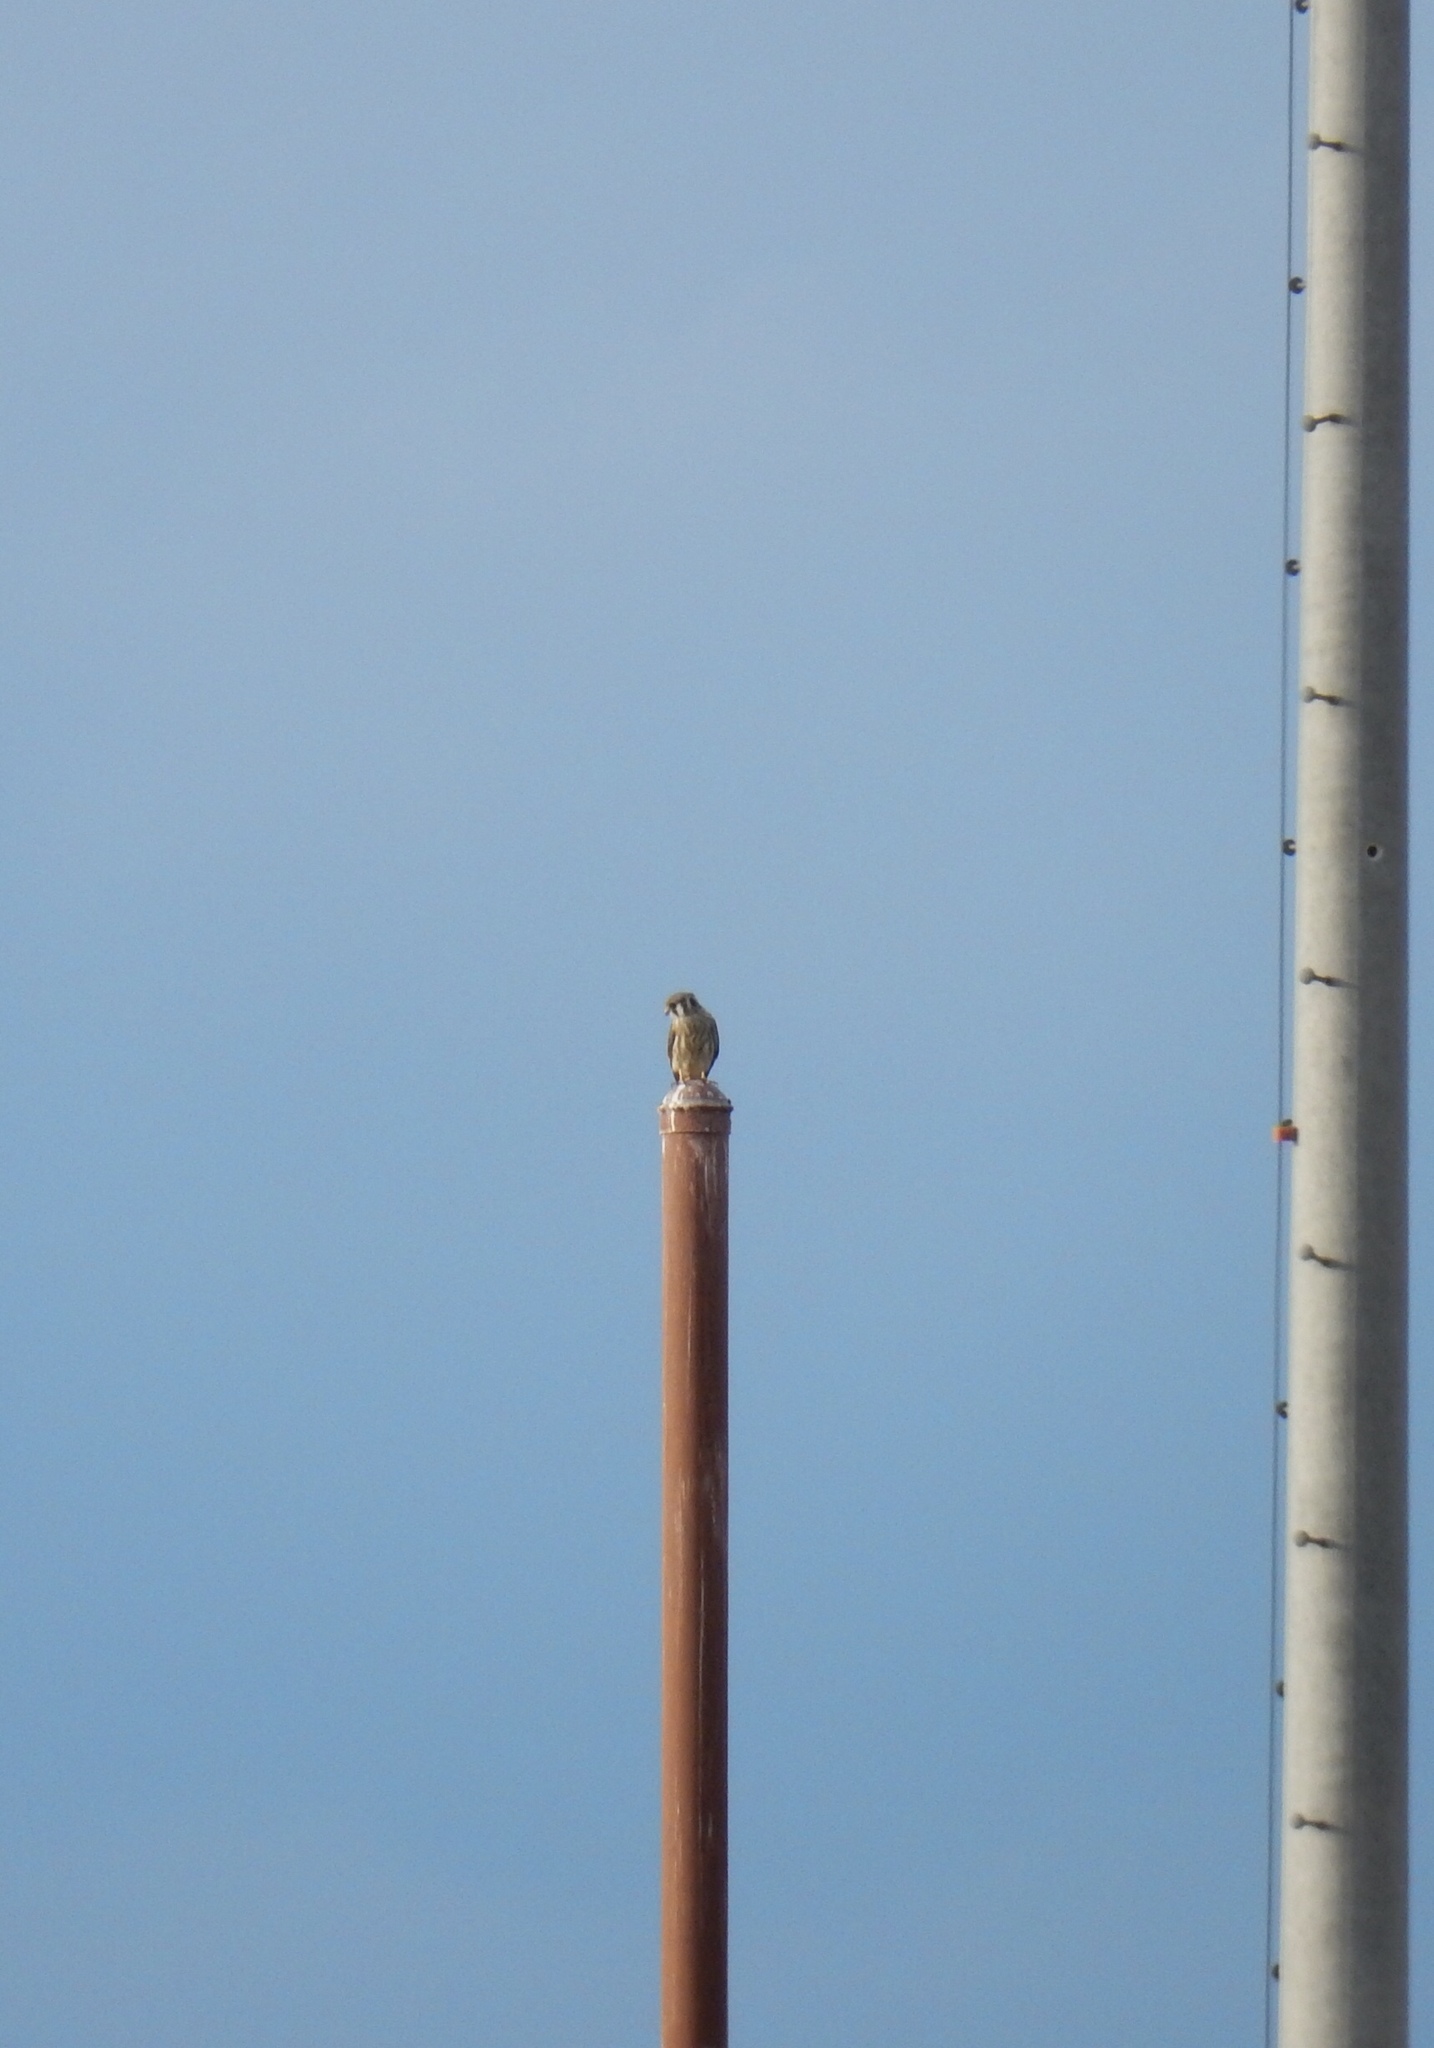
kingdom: Animalia
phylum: Chordata
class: Aves
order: Falconiformes
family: Falconidae
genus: Falco
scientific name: Falco sparverius
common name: American kestrel
